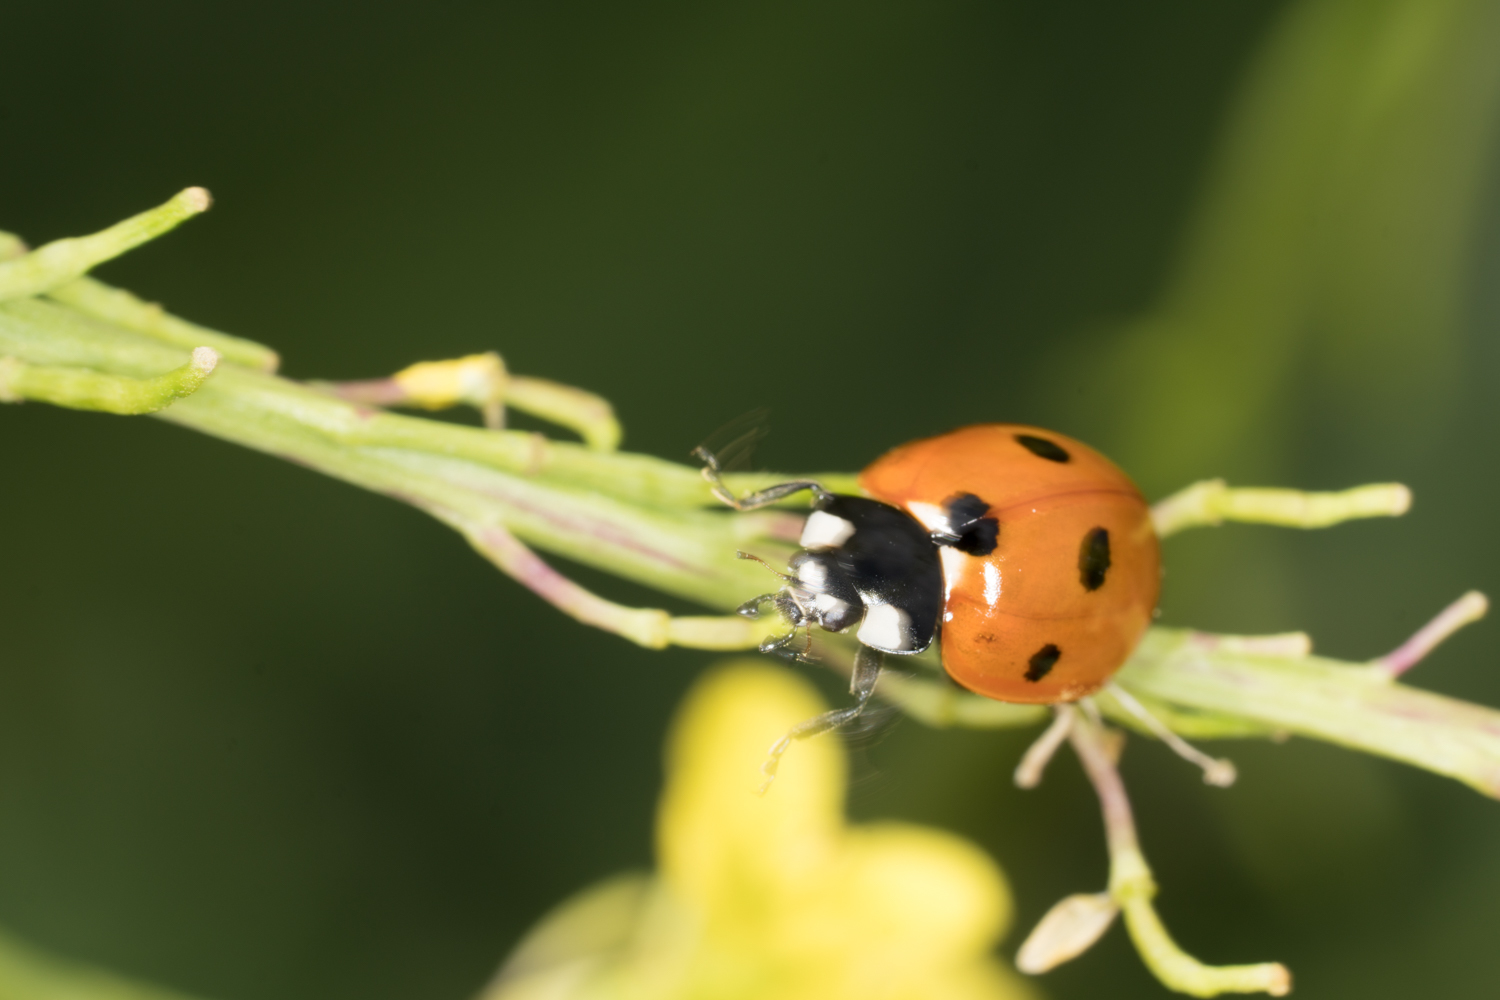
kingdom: Animalia
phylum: Arthropoda
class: Insecta
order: Coleoptera
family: Coccinellidae
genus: Coccinella
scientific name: Coccinella septempunctata
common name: Sevenspotted lady beetle
